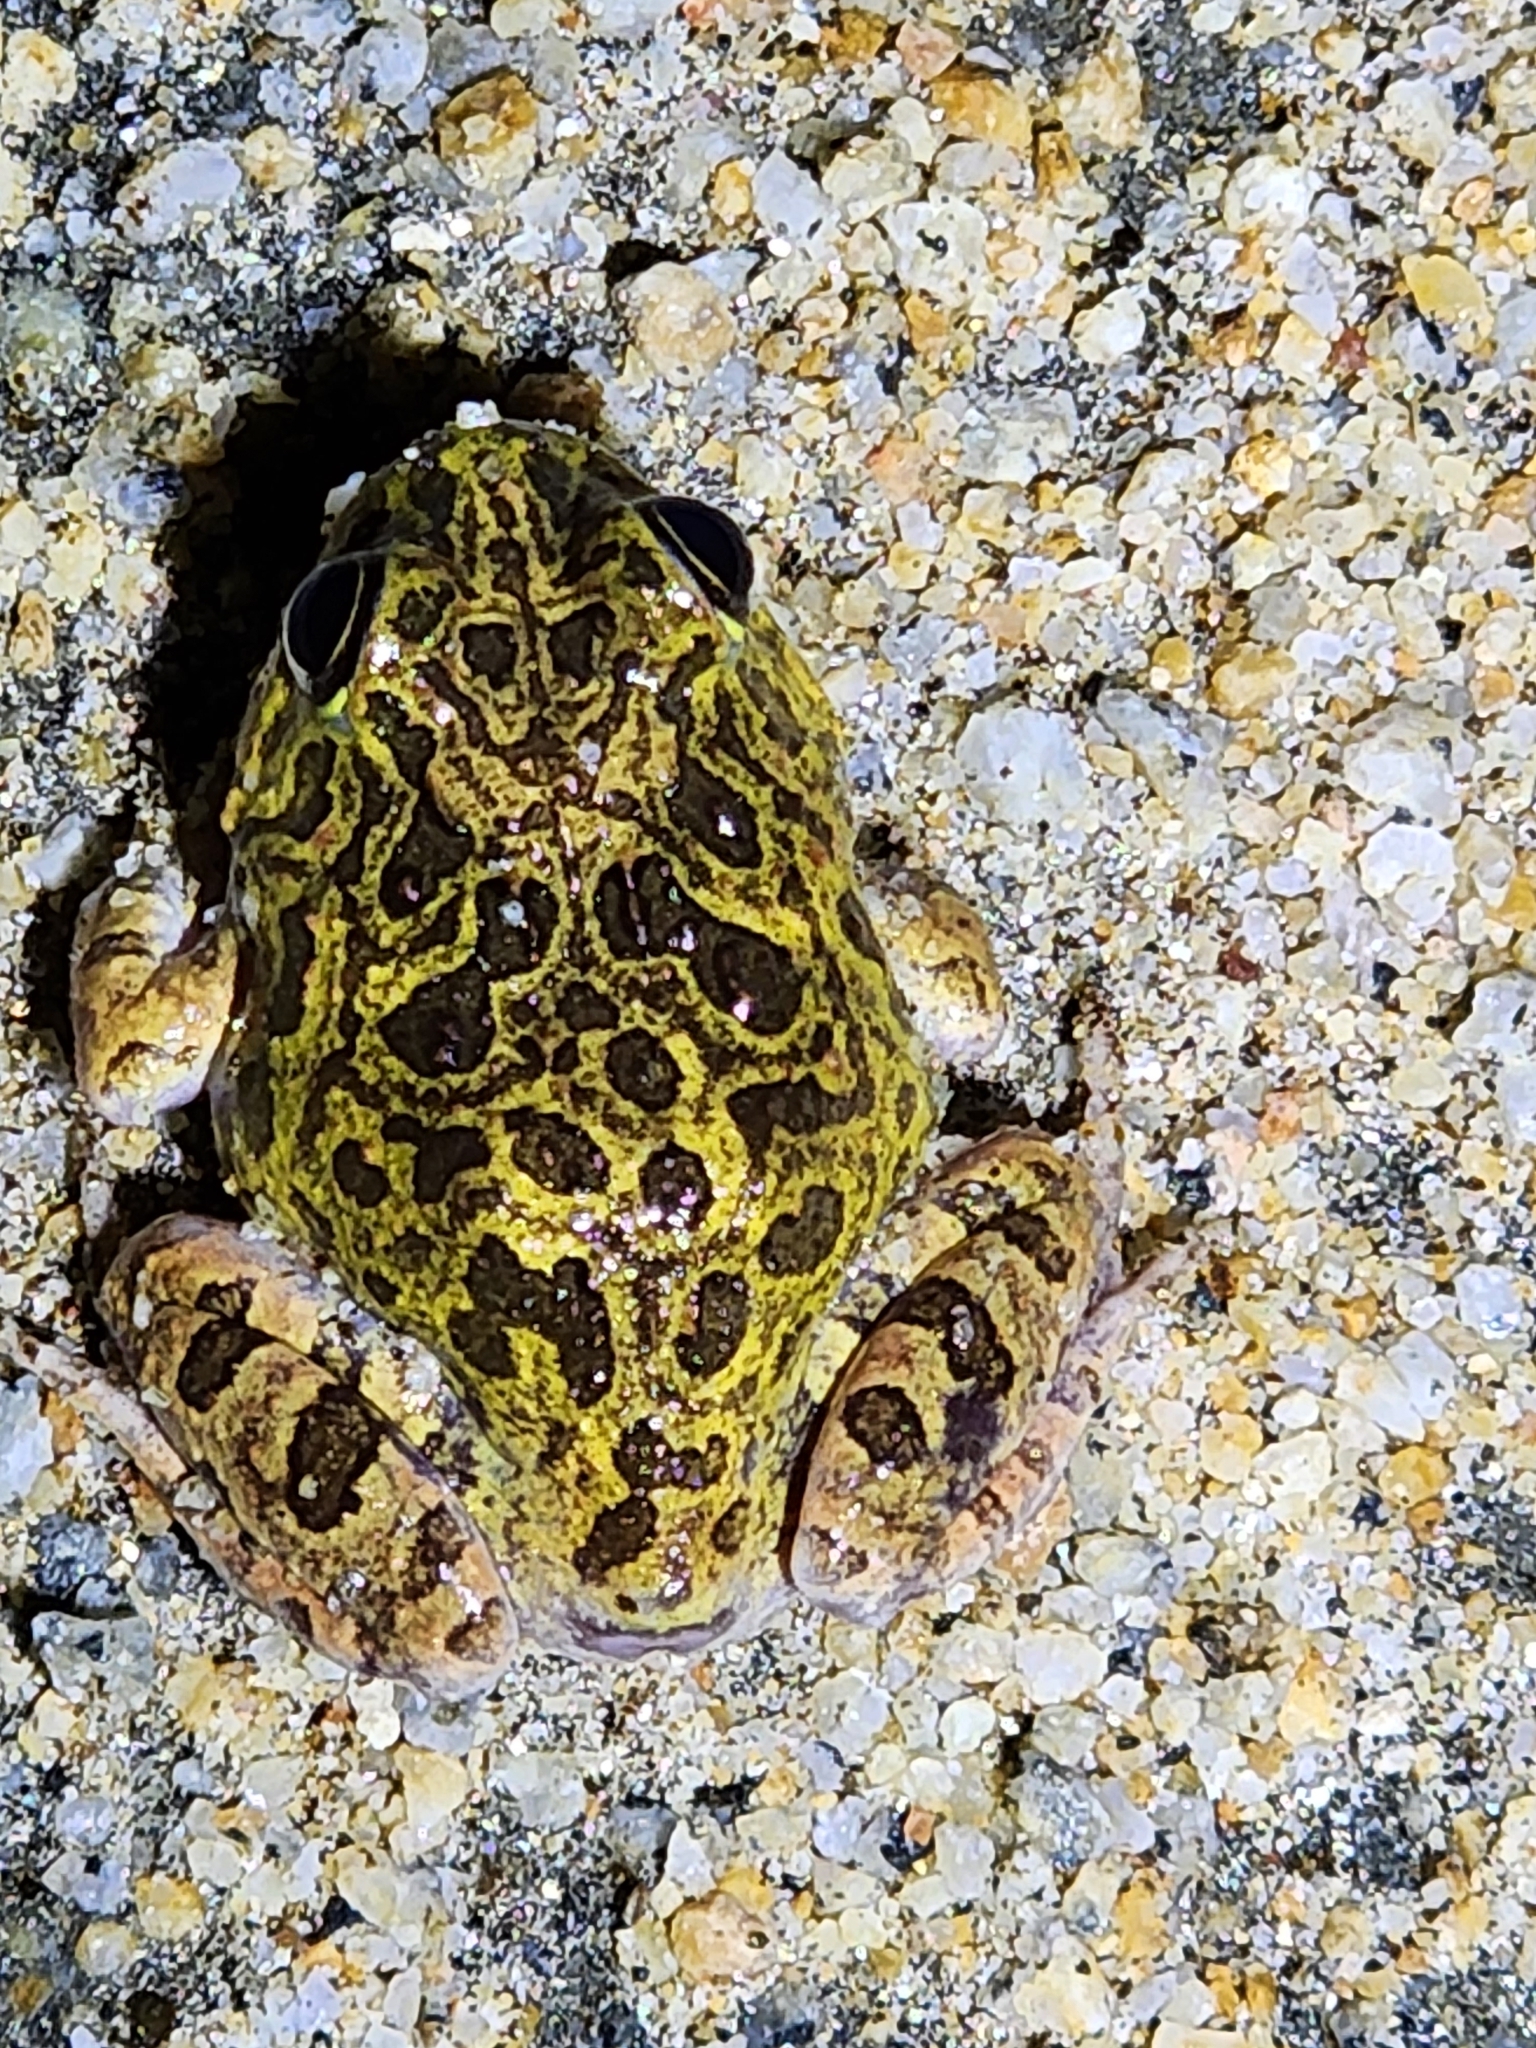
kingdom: Animalia
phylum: Chordata
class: Amphibia
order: Anura
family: Limnodynastidae
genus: Platyplectrum
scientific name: Platyplectrum ornatum
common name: Ornate burrowing frog
